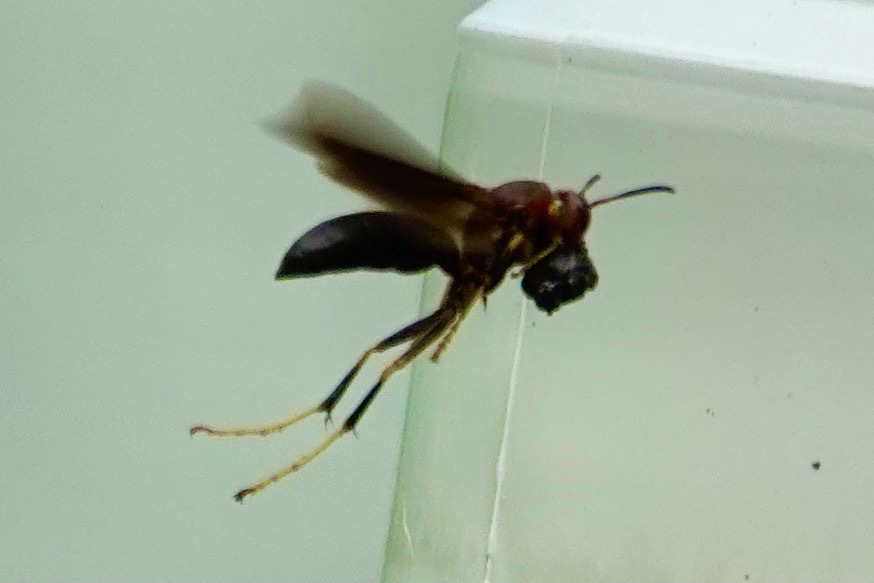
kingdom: Animalia
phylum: Arthropoda
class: Insecta
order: Hymenoptera
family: Eumenidae
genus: Polistes
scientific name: Polistes metricus
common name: Metric paper wasp
